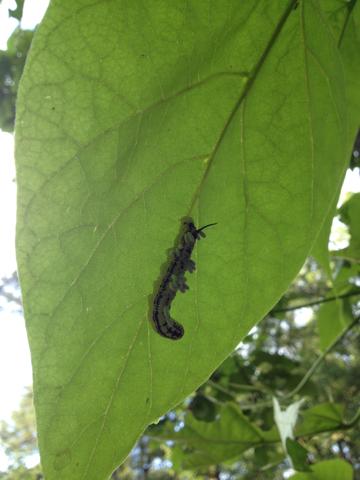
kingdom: Animalia
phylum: Arthropoda
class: Insecta
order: Lepidoptera
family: Sphingidae
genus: Ceratomia
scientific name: Ceratomia catalpae
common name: Catalpa hornworm
